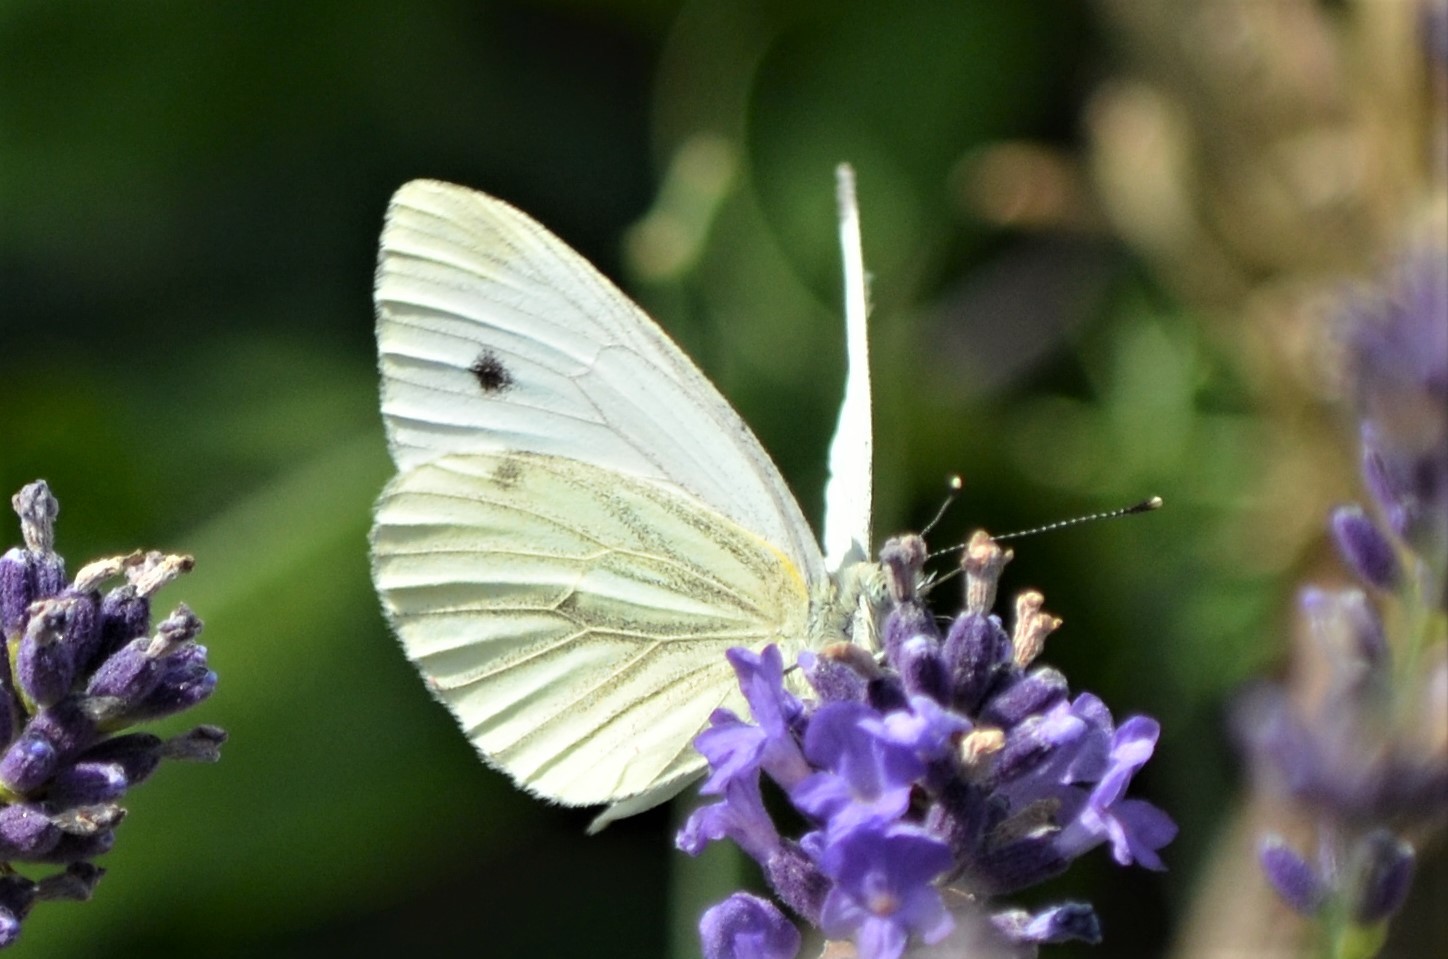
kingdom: Animalia
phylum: Arthropoda
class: Insecta
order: Lepidoptera
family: Pieridae
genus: Pieris
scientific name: Pieris napi
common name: Green-veined white
